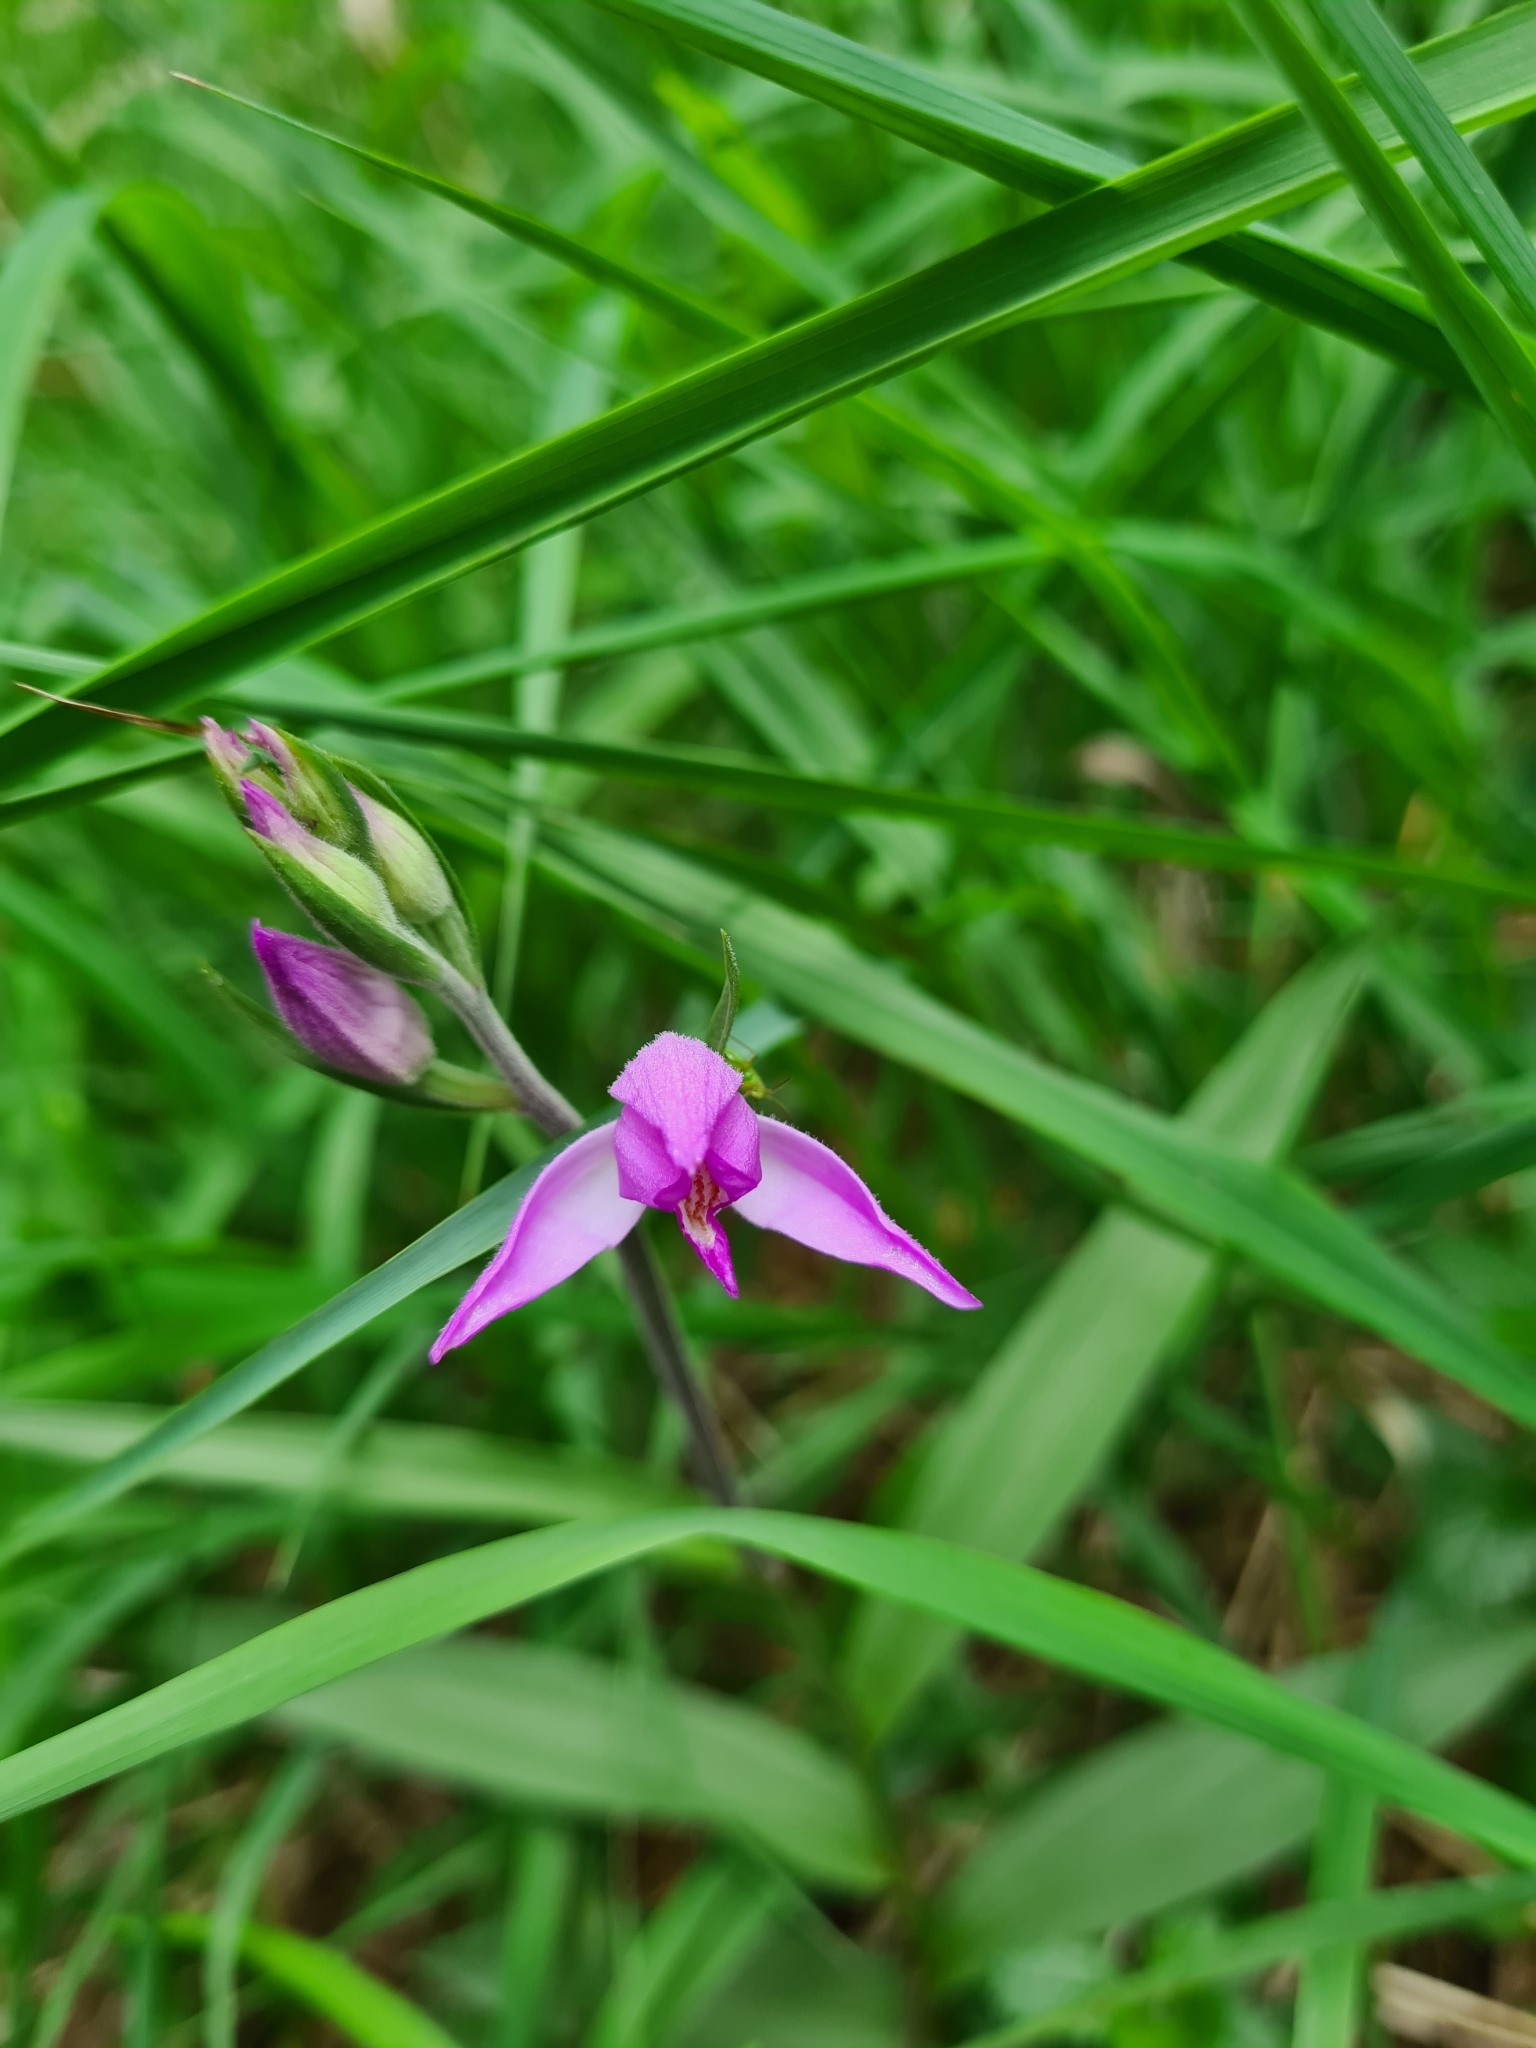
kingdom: Plantae
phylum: Tracheophyta
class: Liliopsida
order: Asparagales
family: Orchidaceae
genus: Cephalanthera
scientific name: Cephalanthera rubra
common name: Red helleborine
